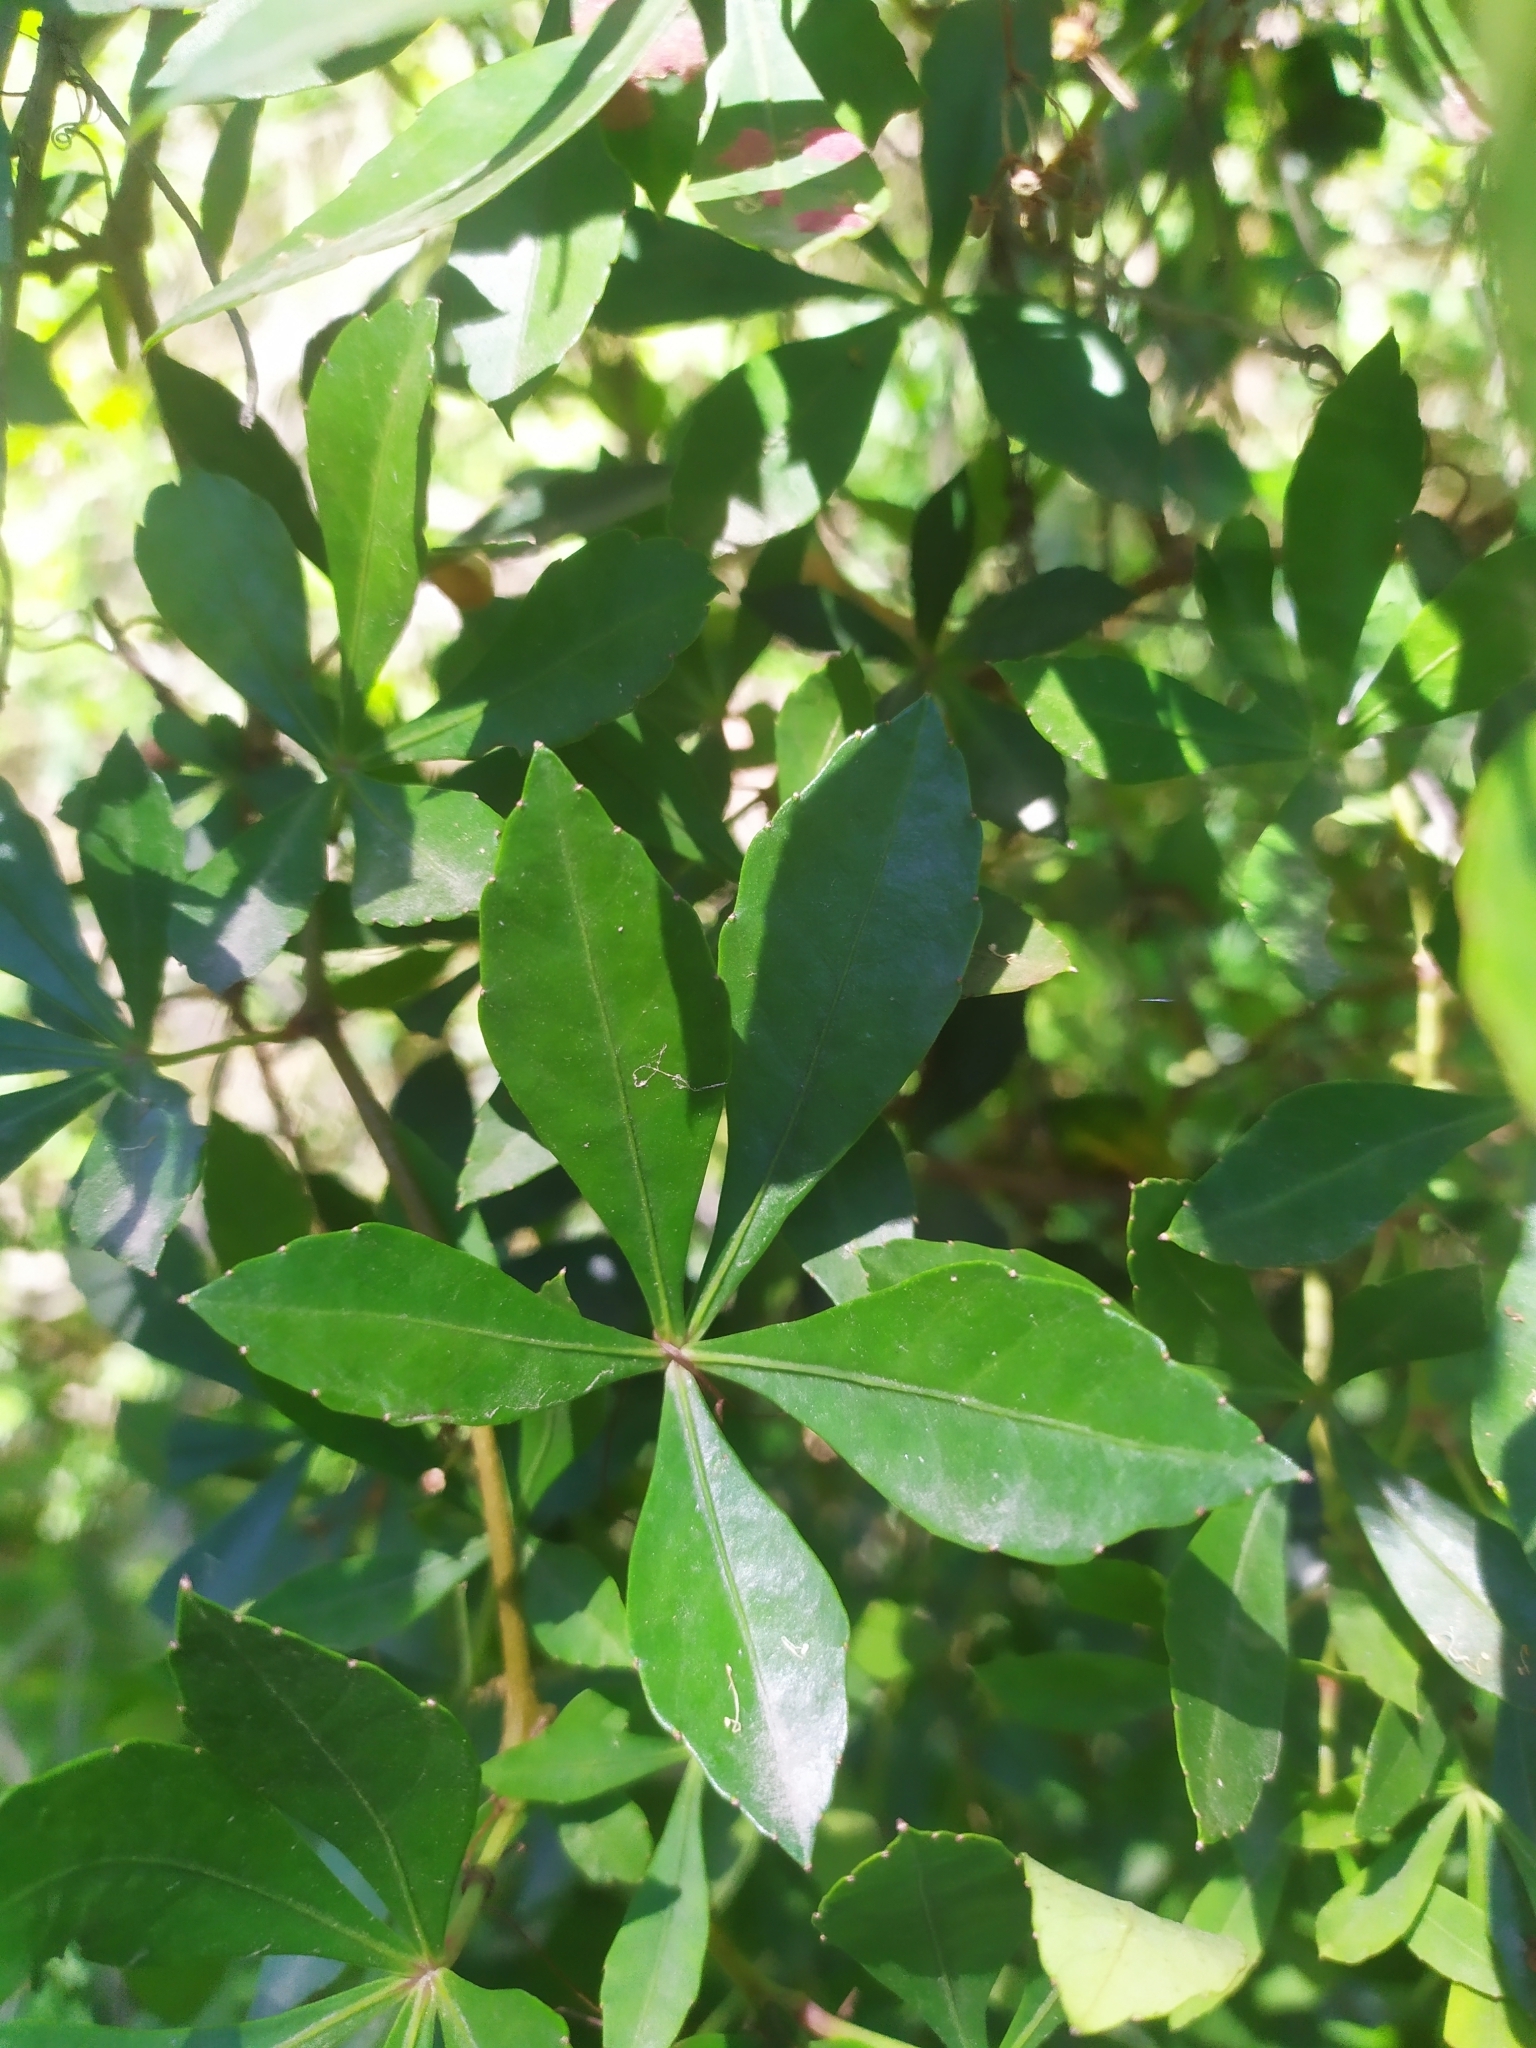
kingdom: Plantae
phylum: Tracheophyta
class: Magnoliopsida
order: Vitales
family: Vitaceae
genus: Clematicissus
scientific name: Clematicissus striata
